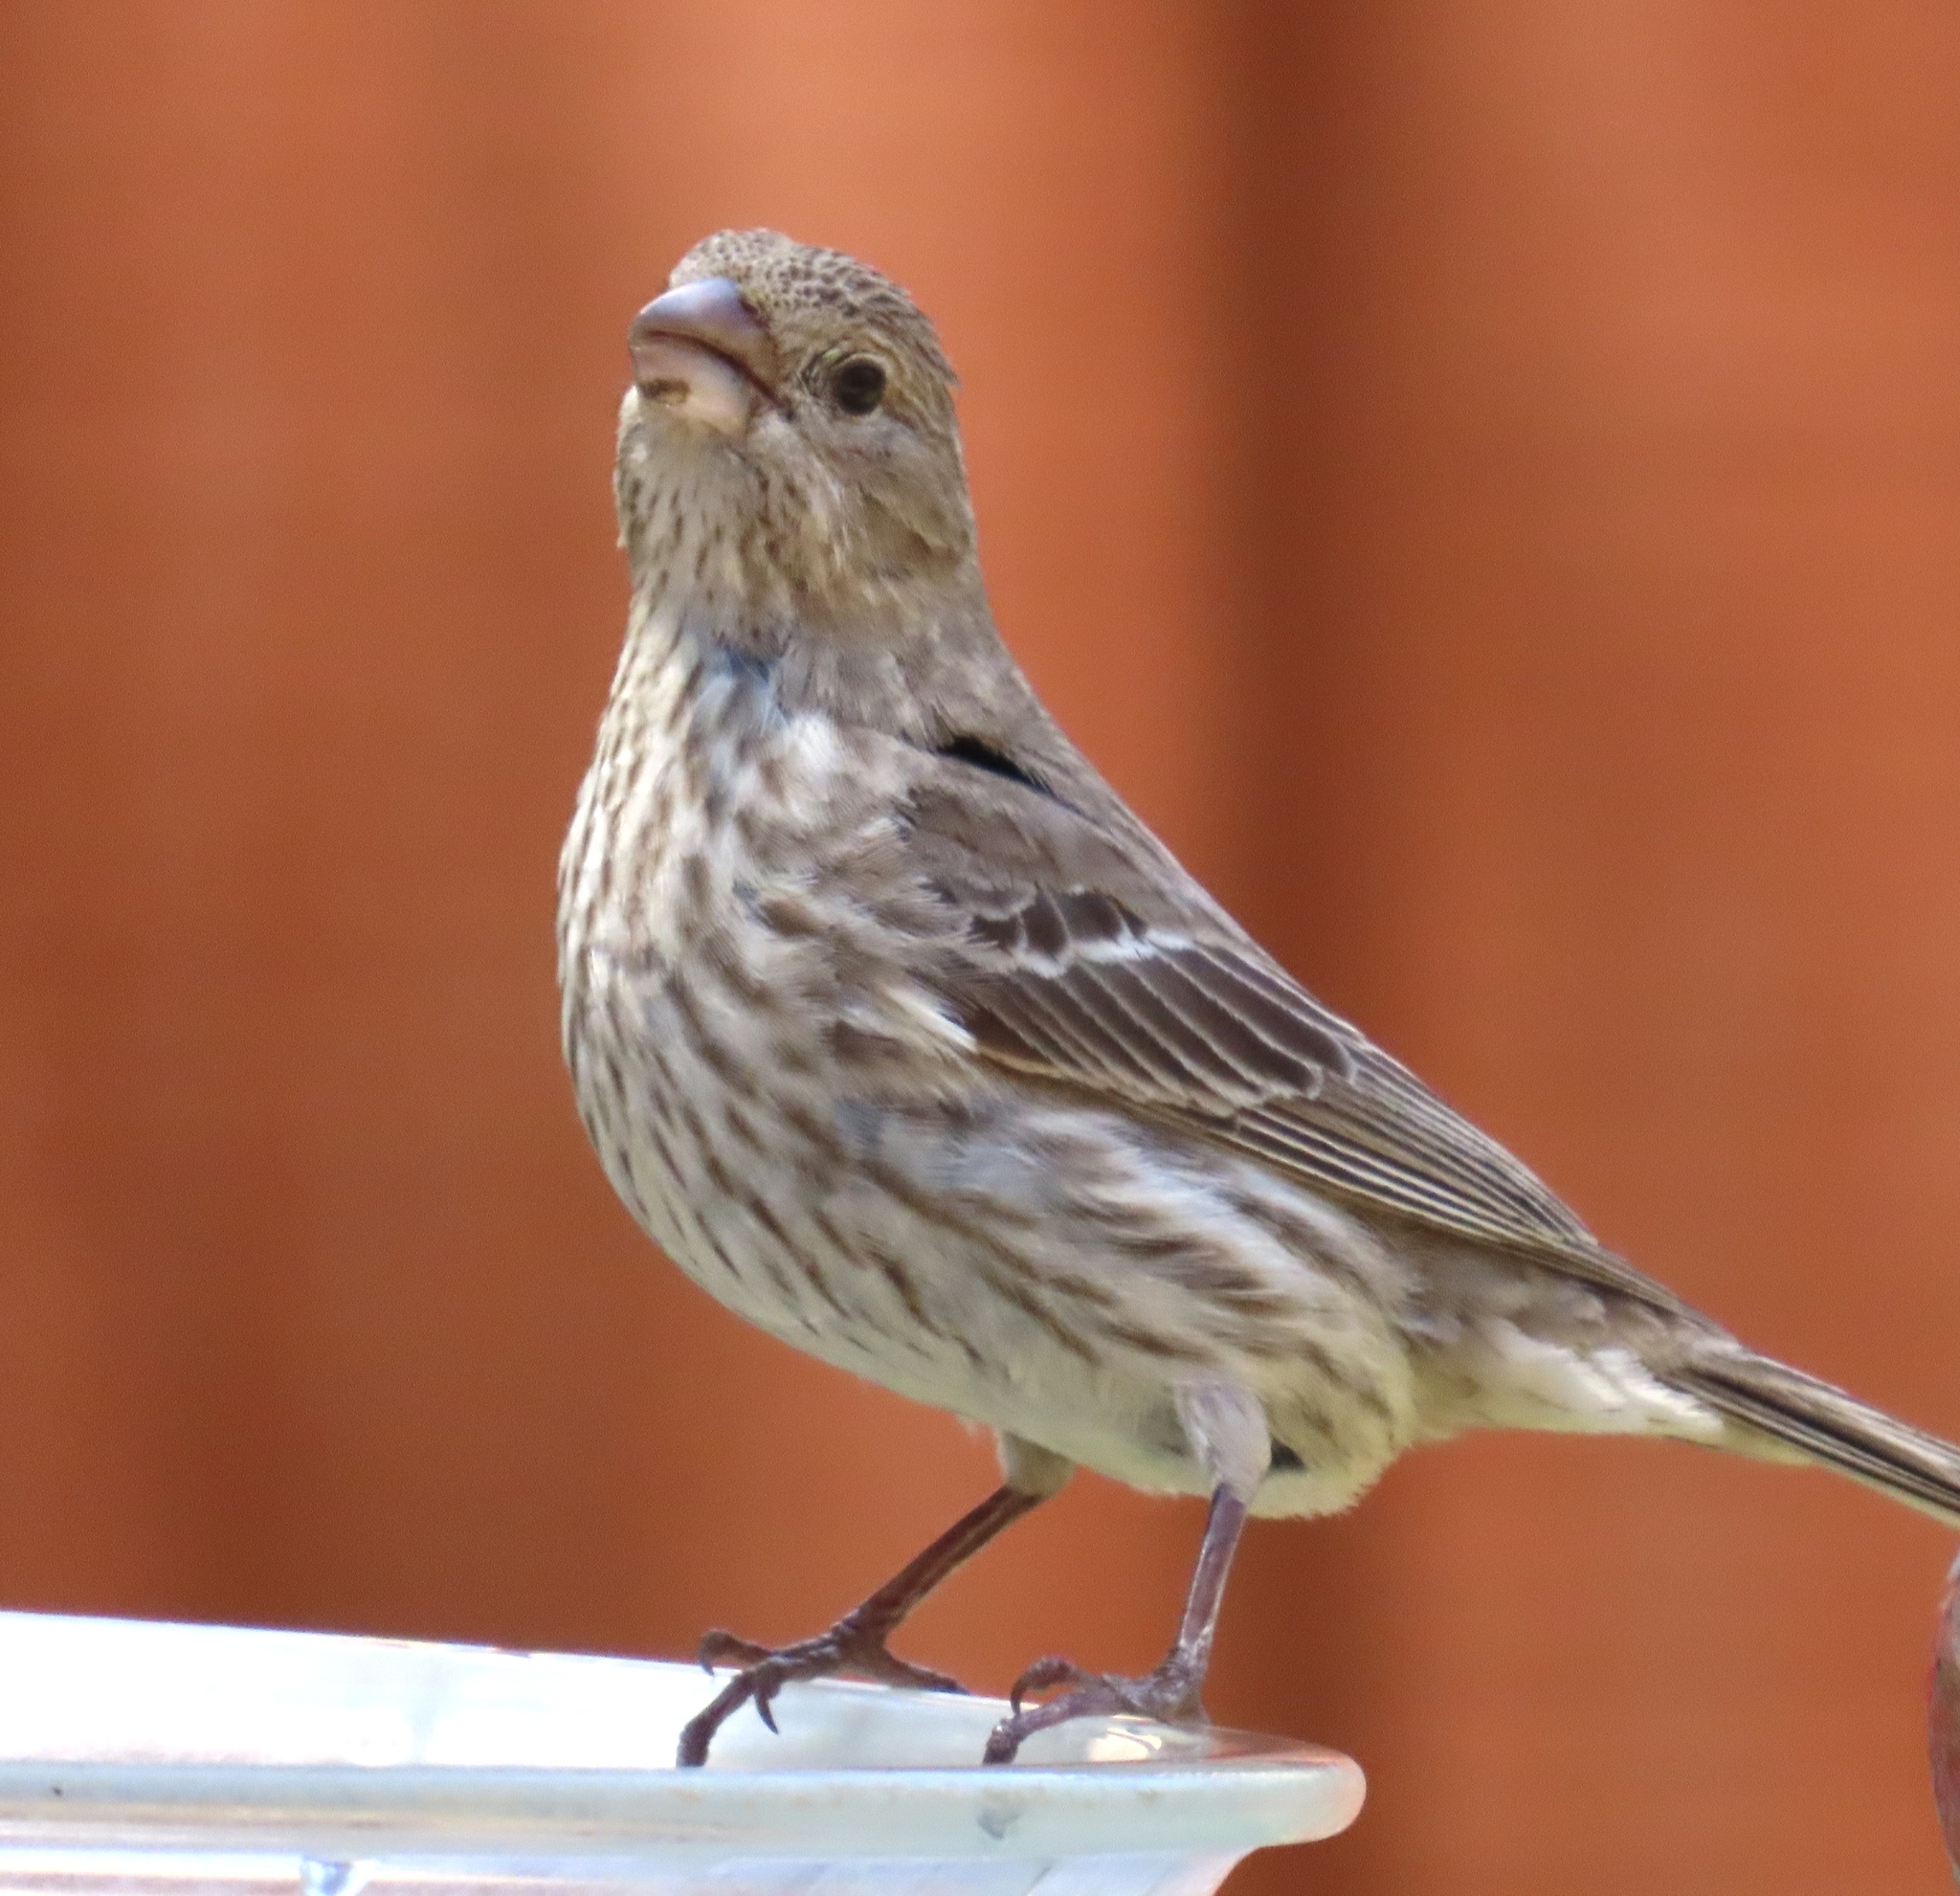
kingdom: Animalia
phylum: Chordata
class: Aves
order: Passeriformes
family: Fringillidae
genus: Haemorhous
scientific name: Haemorhous mexicanus
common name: House finch
